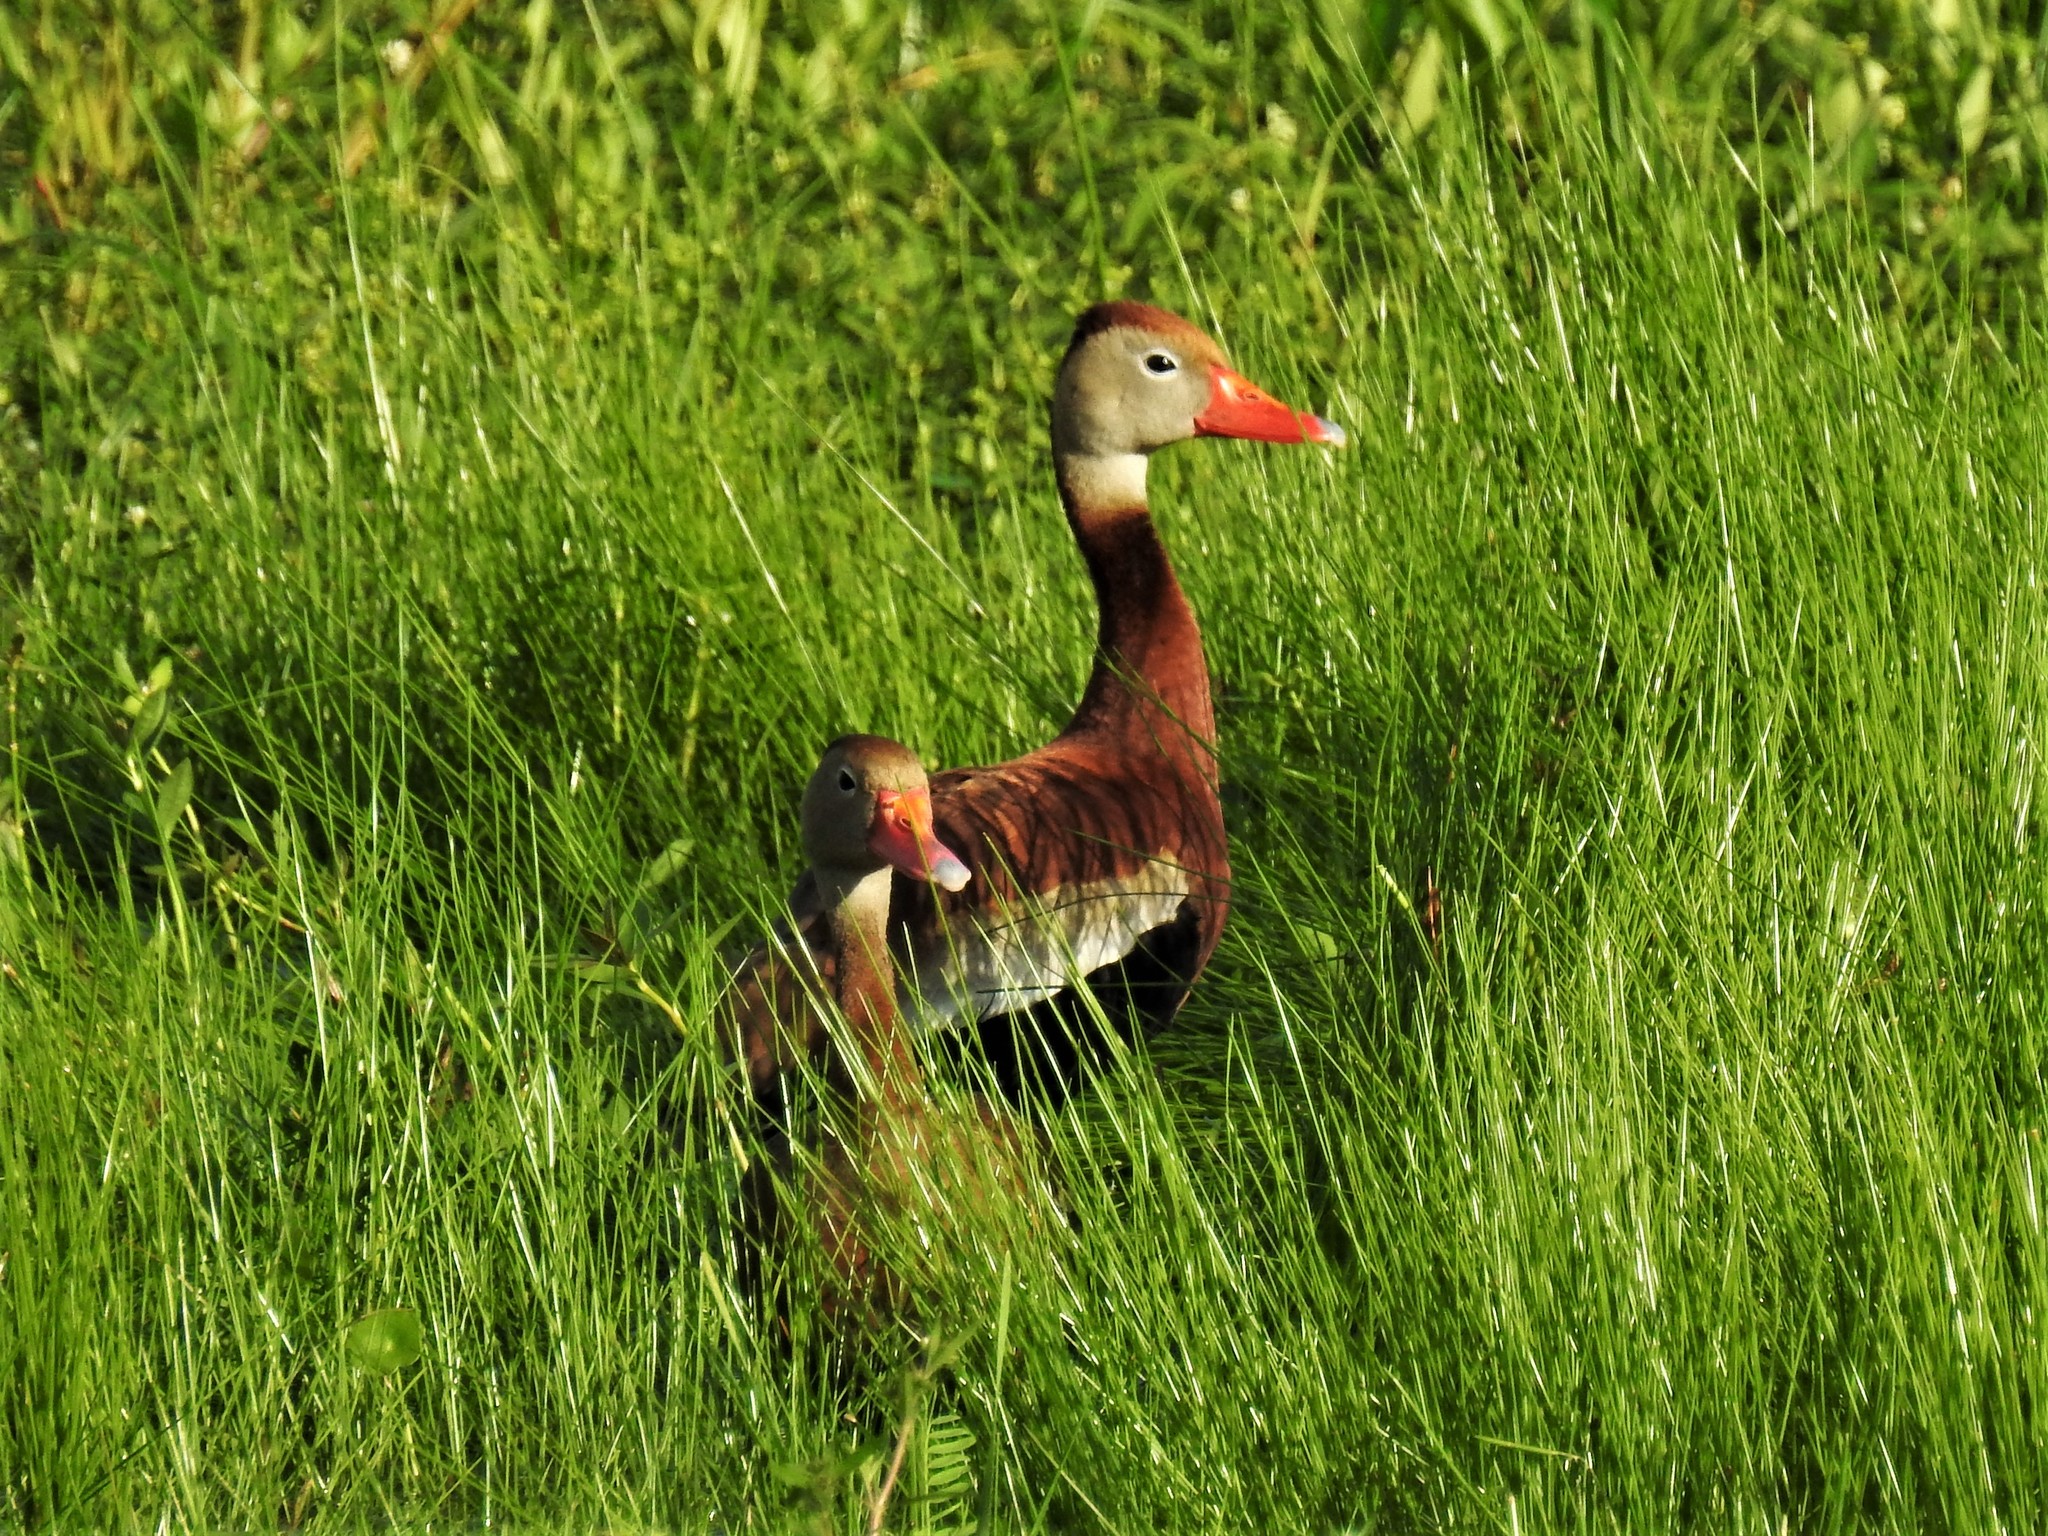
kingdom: Animalia
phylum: Chordata
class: Aves
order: Anseriformes
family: Anatidae
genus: Dendrocygna
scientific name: Dendrocygna autumnalis
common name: Black-bellied whistling duck
